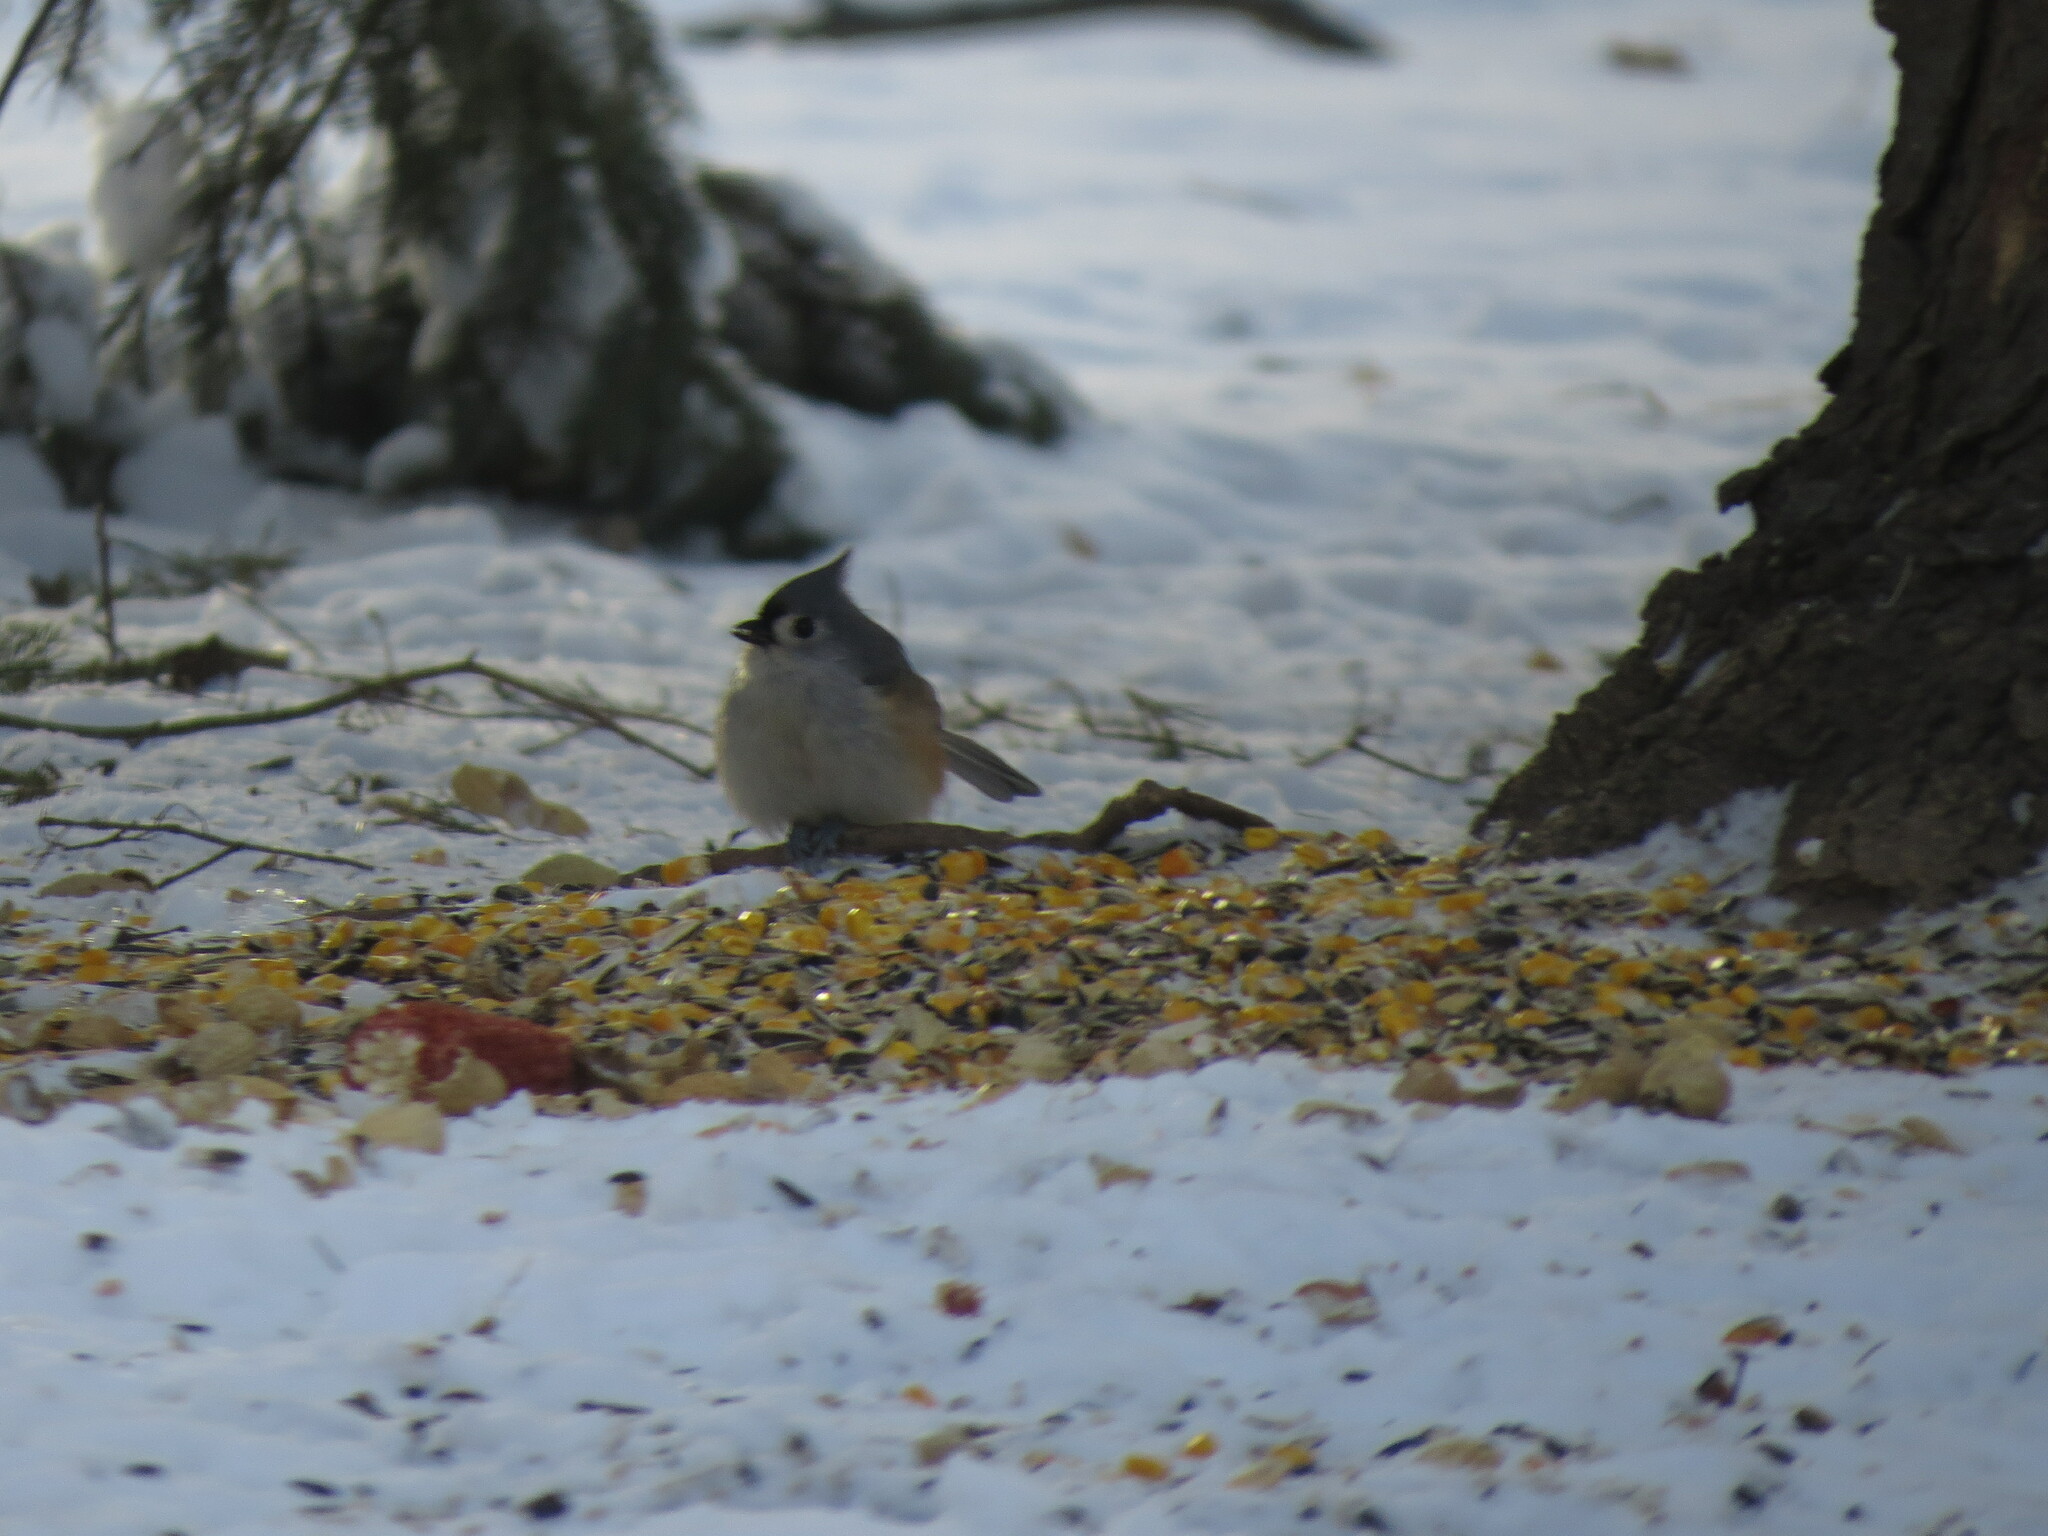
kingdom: Animalia
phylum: Chordata
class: Aves
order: Passeriformes
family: Paridae
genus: Baeolophus
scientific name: Baeolophus bicolor
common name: Tufted titmouse
